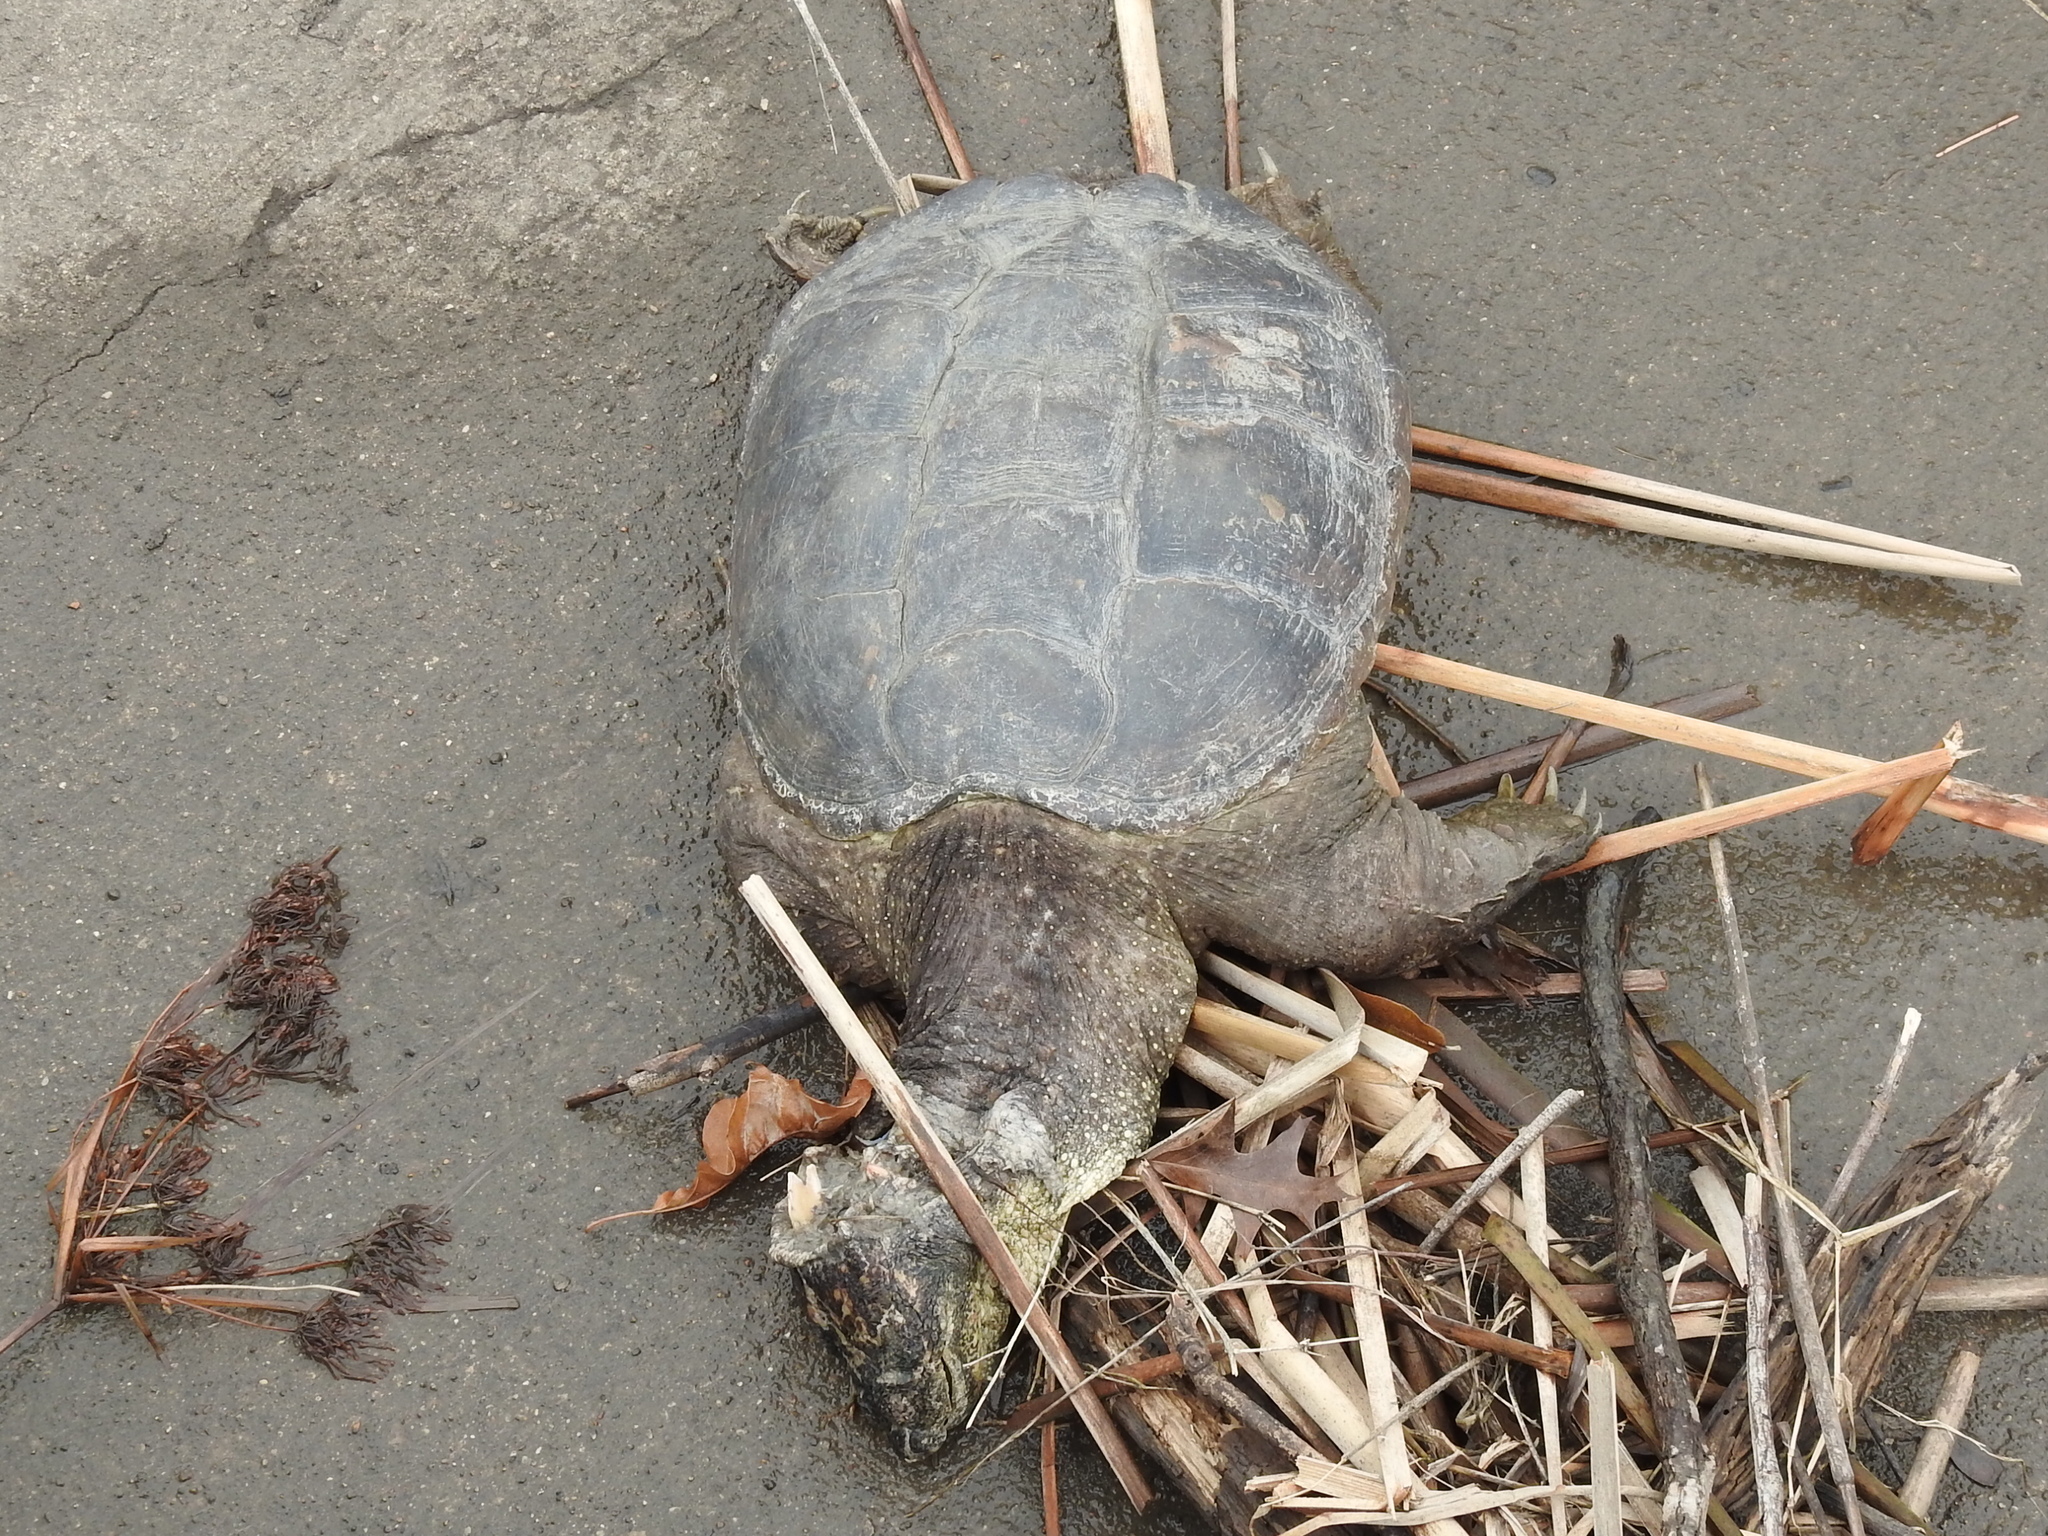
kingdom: Animalia
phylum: Chordata
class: Testudines
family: Chelydridae
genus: Chelydra
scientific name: Chelydra serpentina
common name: Common snapping turtle
